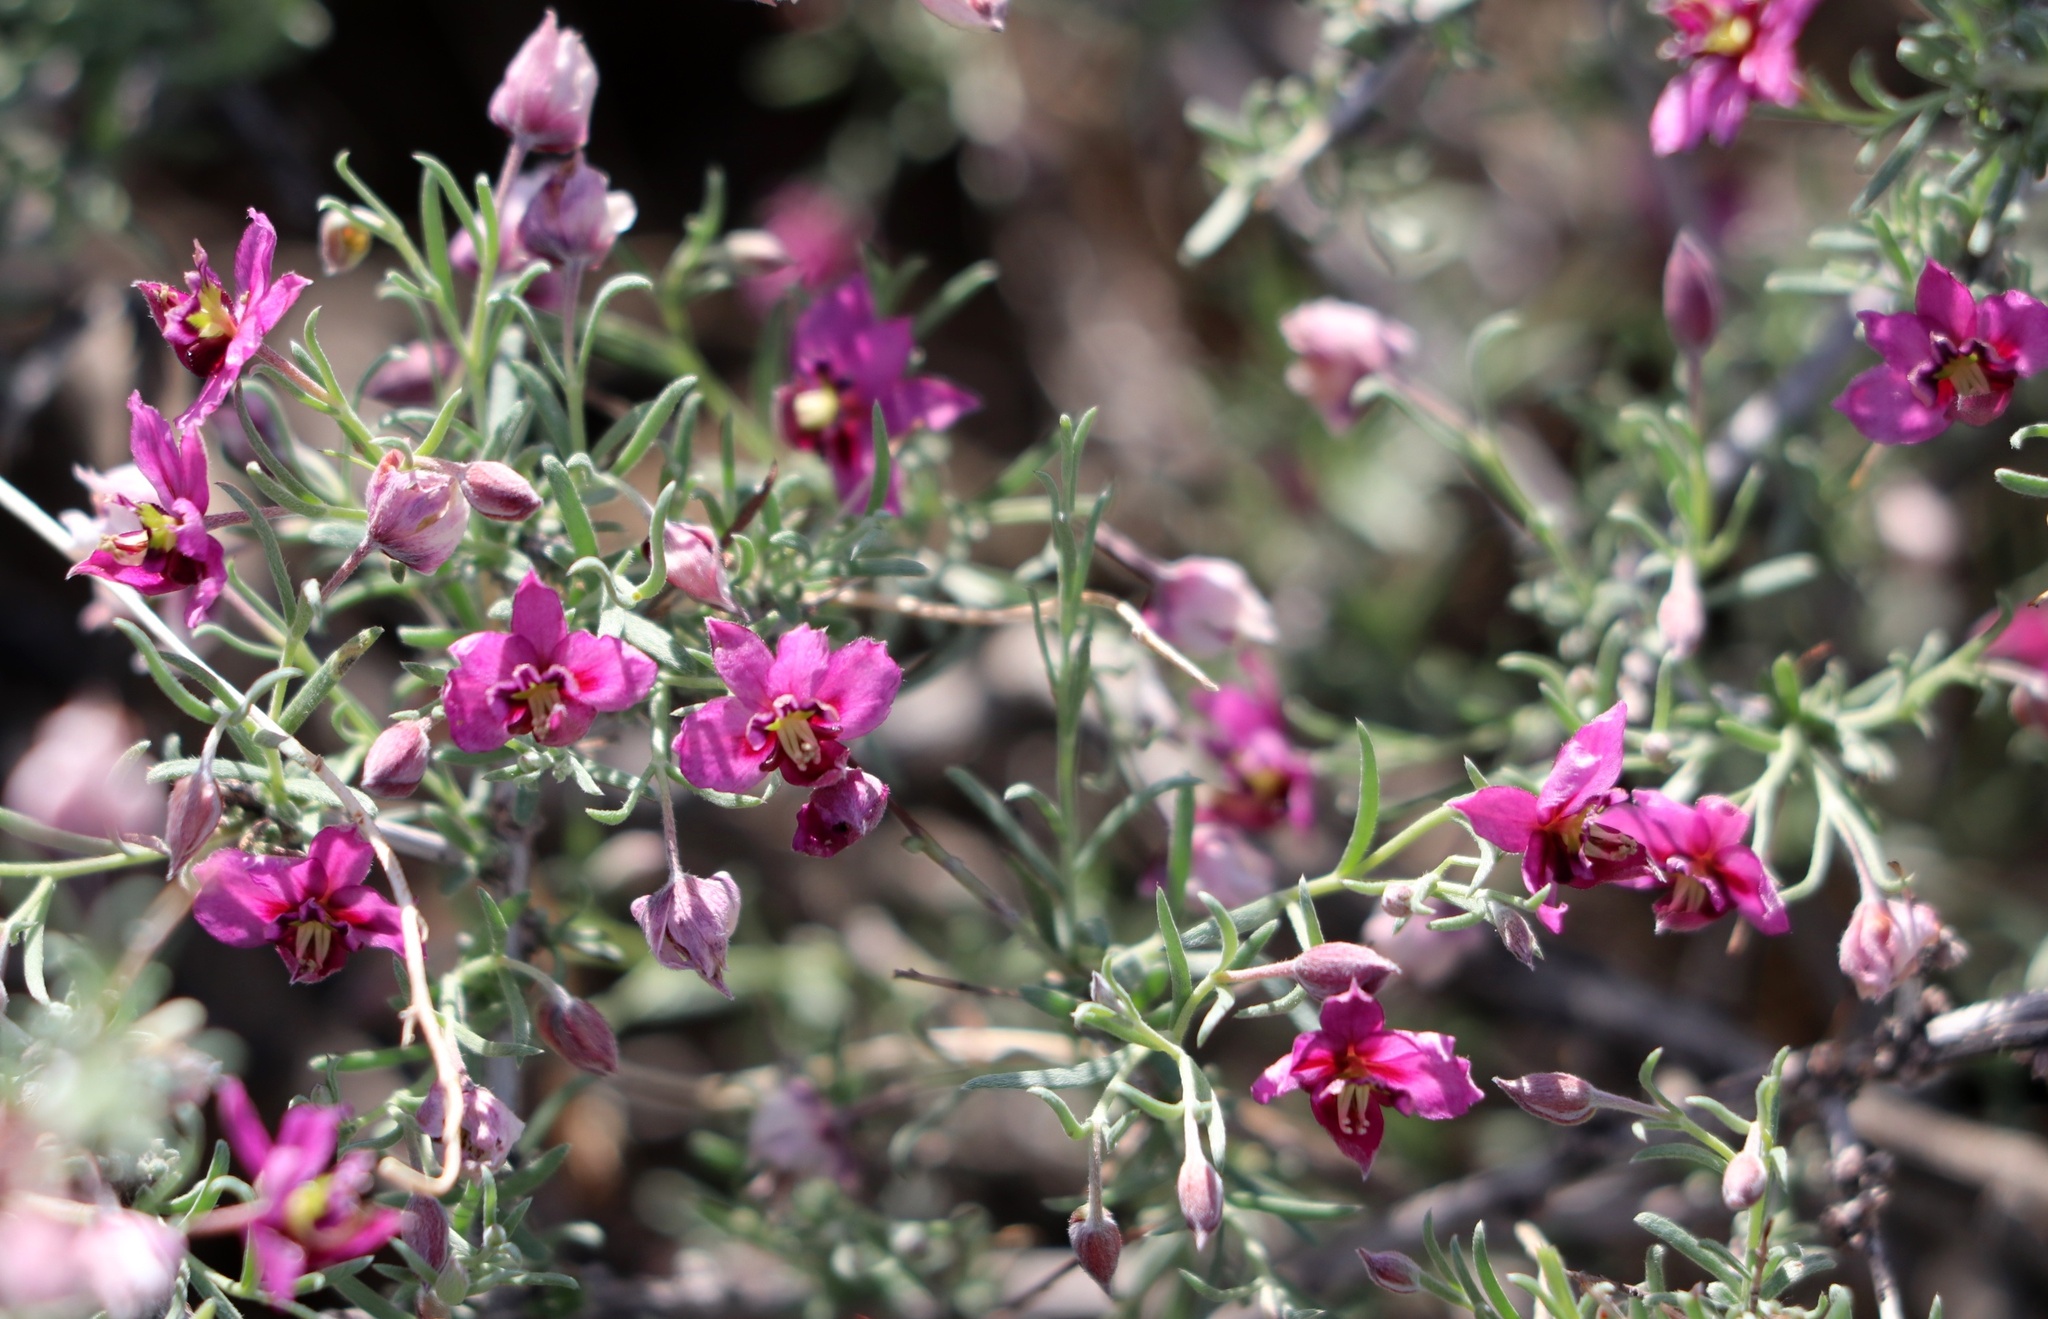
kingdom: Plantae
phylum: Tracheophyta
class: Magnoliopsida
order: Zygophyllales
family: Krameriaceae
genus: Krameria
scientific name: Krameria erecta
